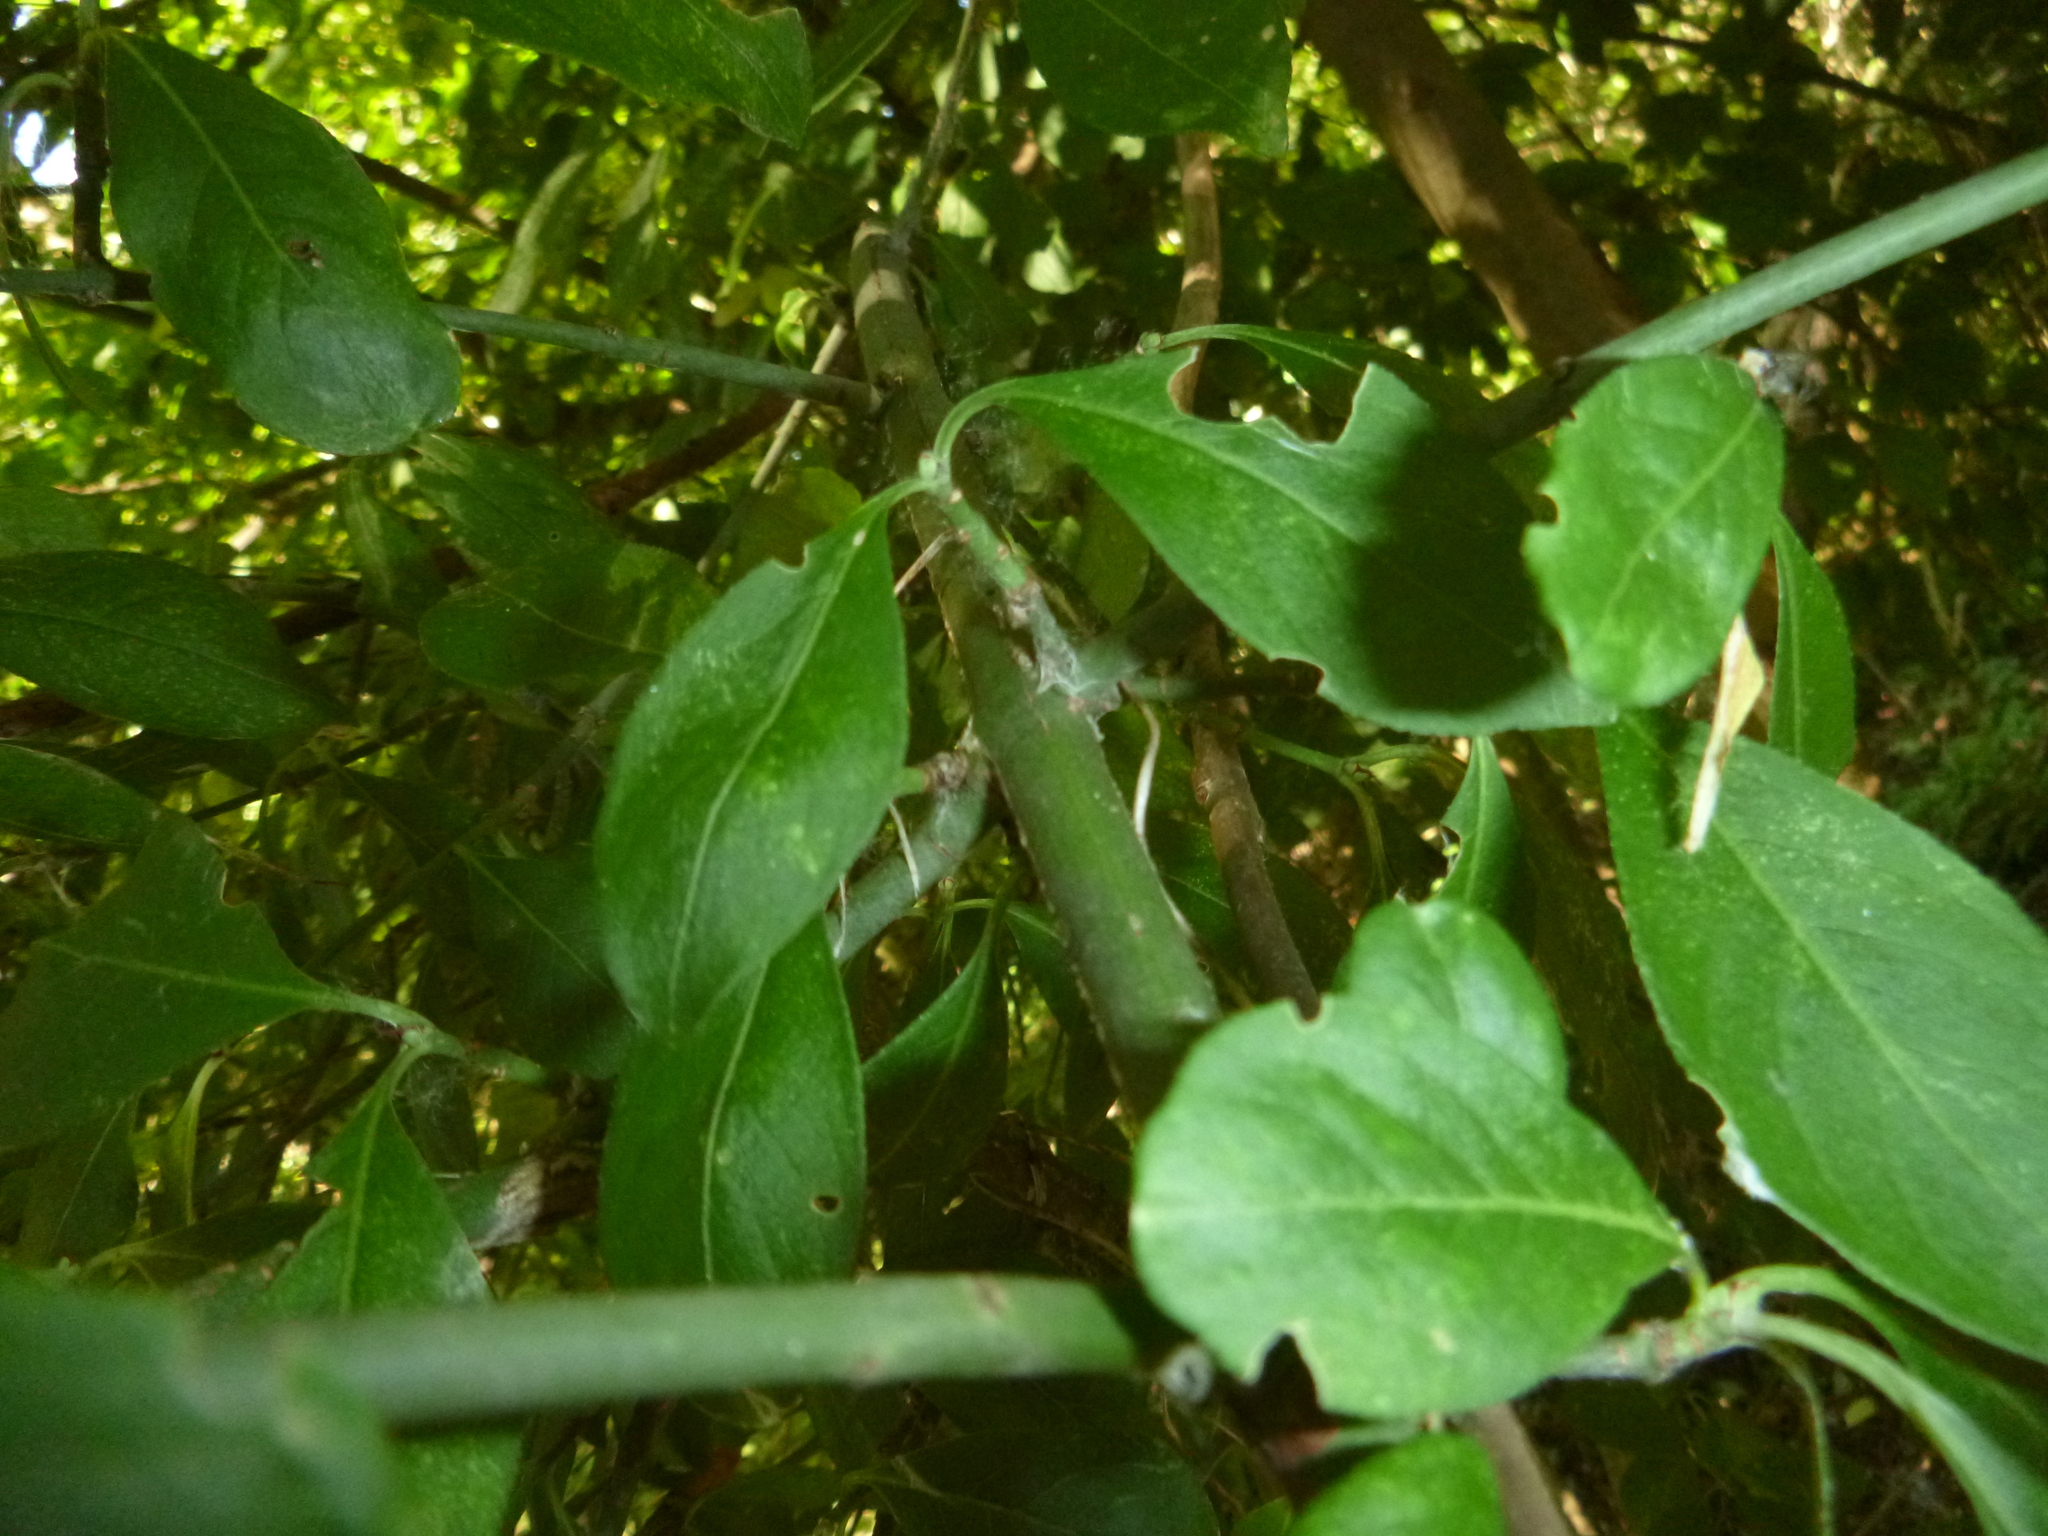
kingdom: Plantae
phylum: Tracheophyta
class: Magnoliopsida
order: Celastrales
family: Celastraceae
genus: Euonymus
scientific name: Euonymus europaeus
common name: Spindle
